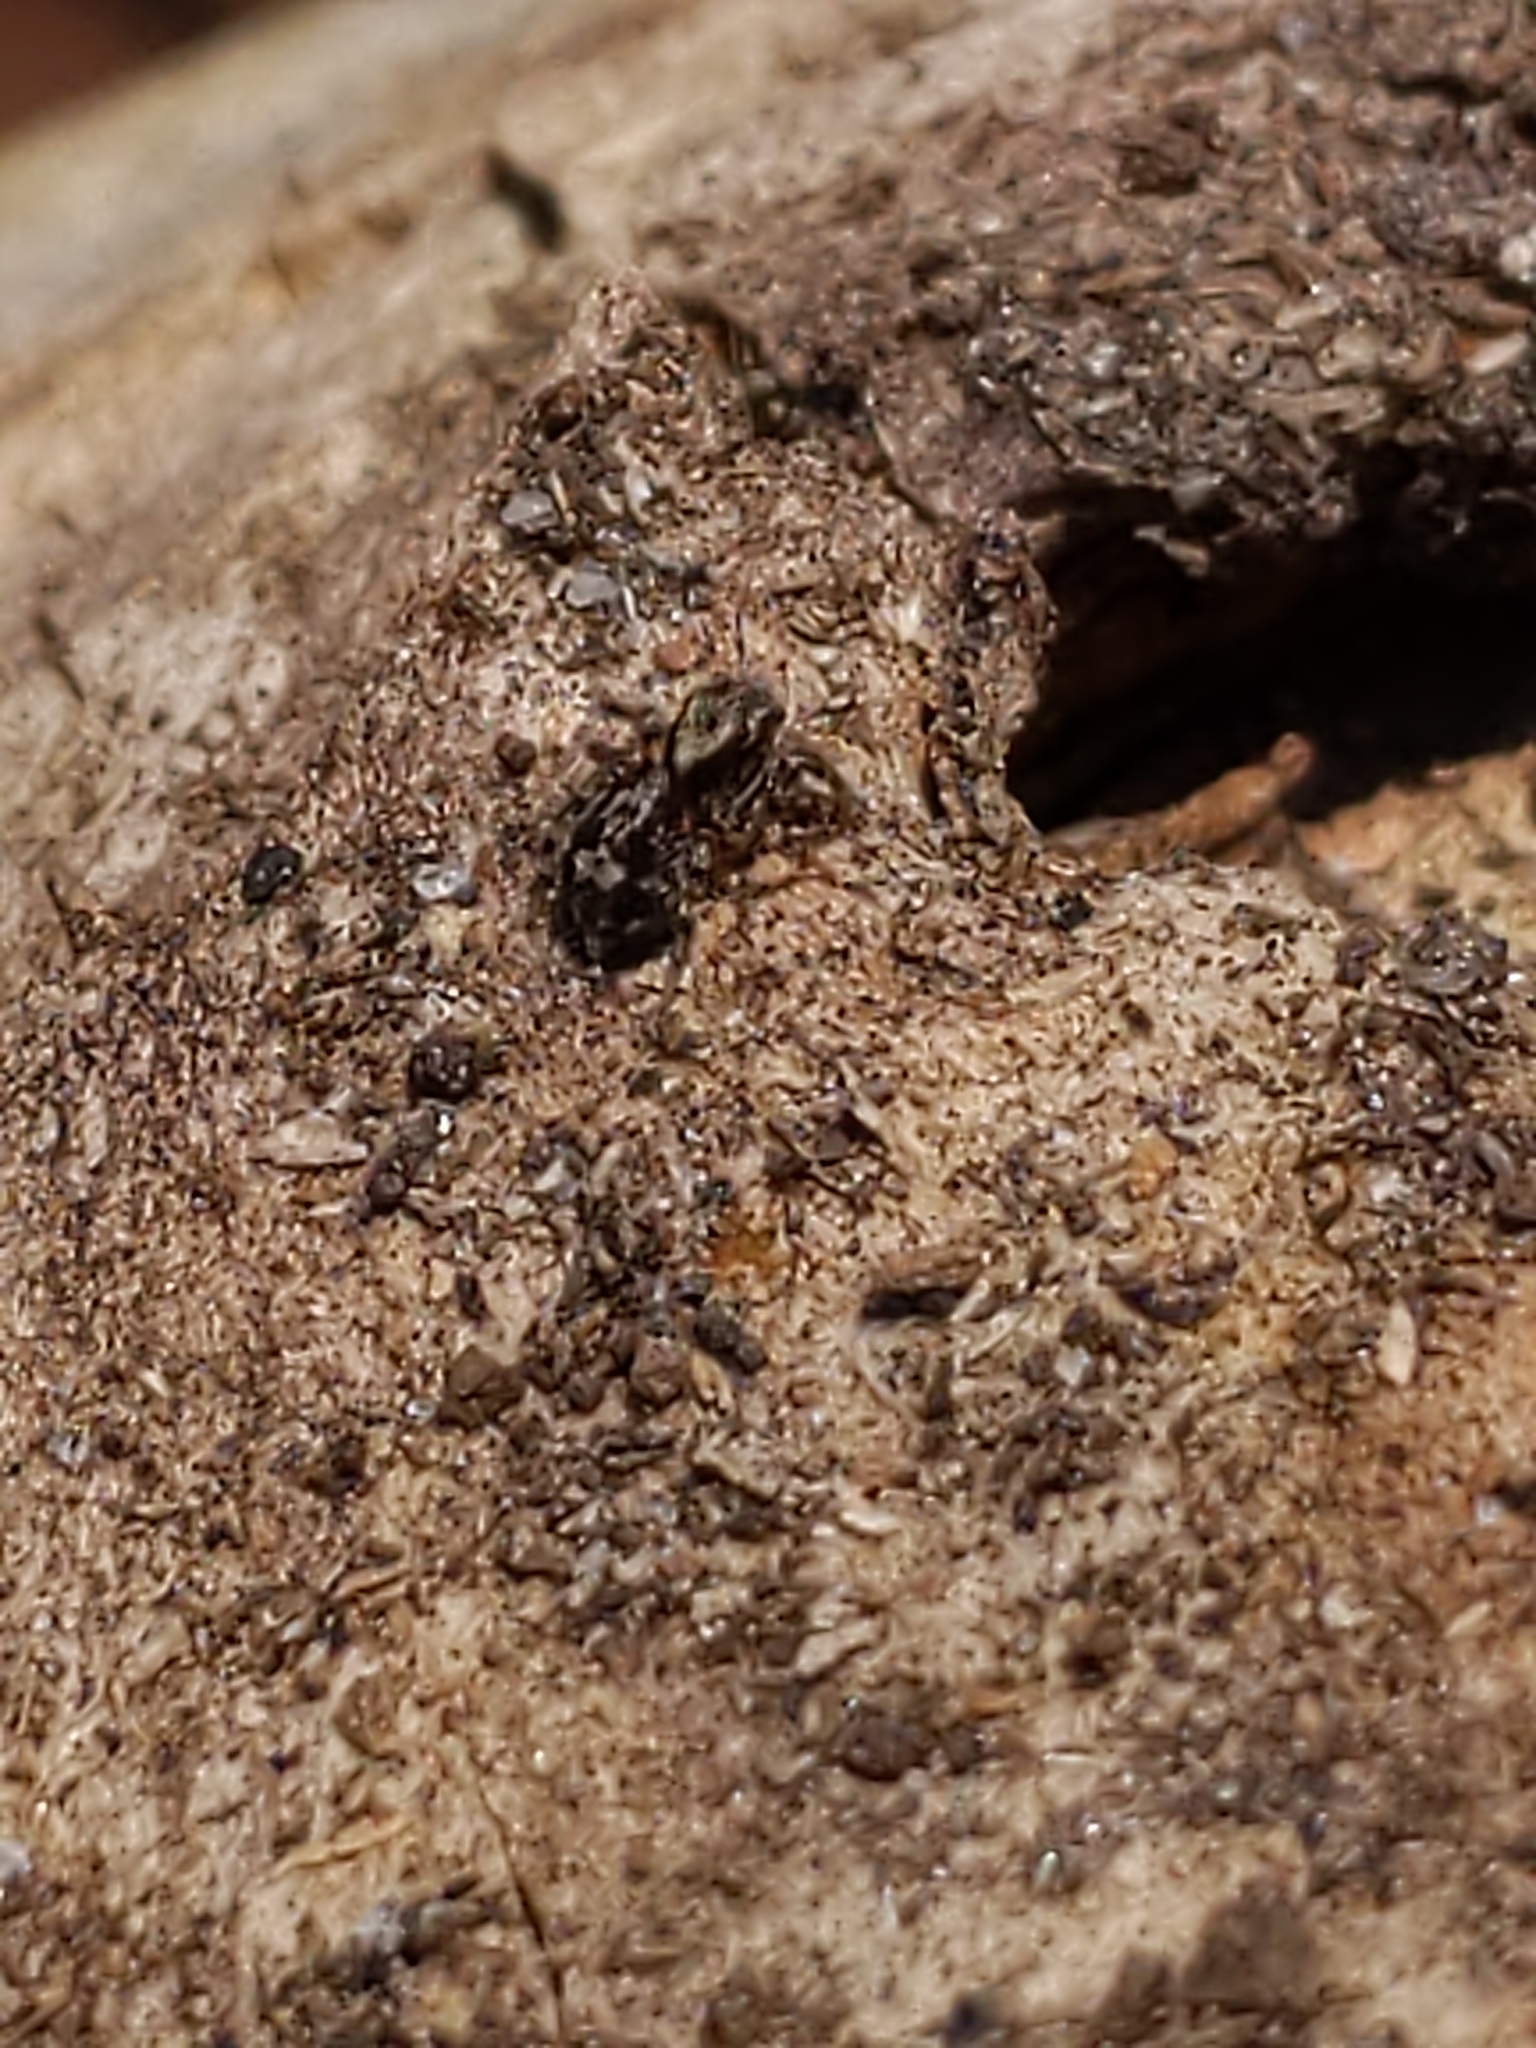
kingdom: Animalia
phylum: Arthropoda
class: Arachnida
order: Araneae
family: Salticidae
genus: Naphrys
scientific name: Naphrys pulex
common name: Flea jumping spider
